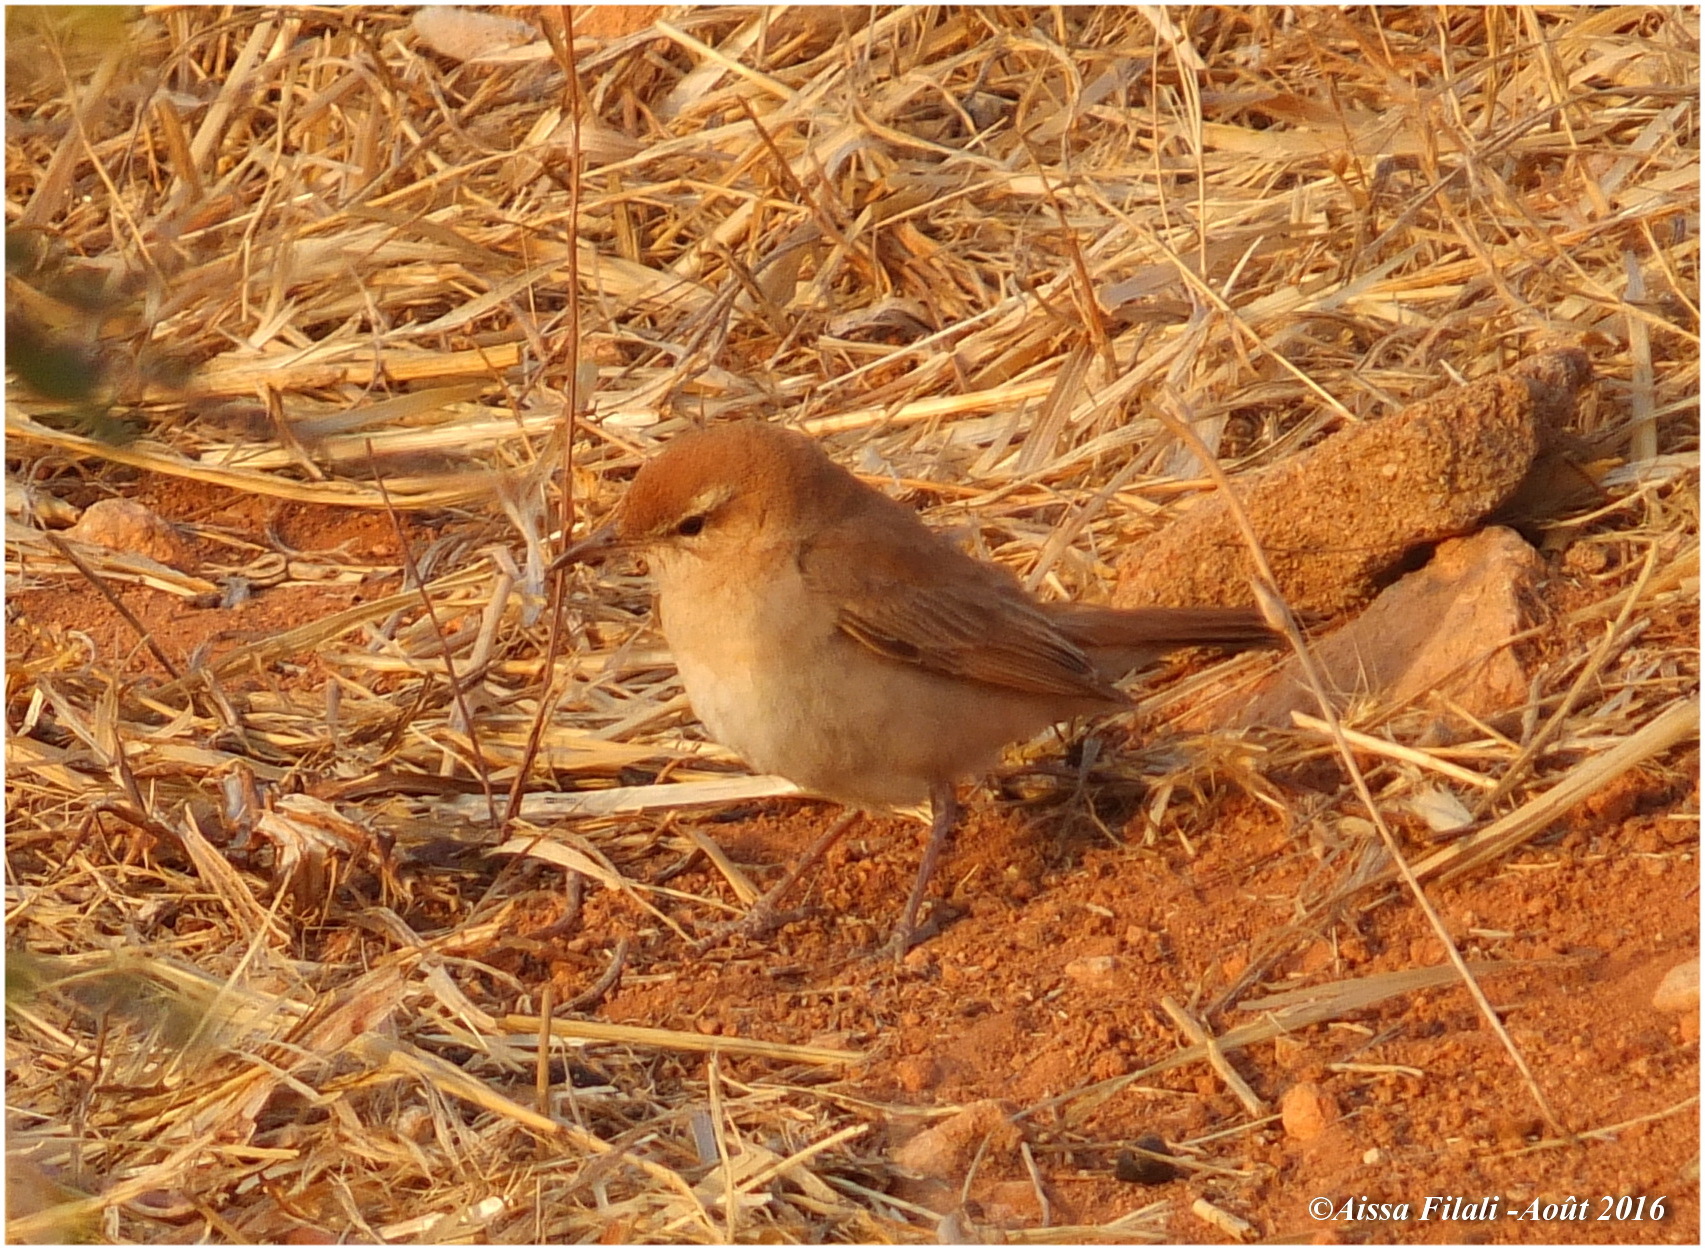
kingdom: Animalia
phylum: Chordata
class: Aves
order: Passeriformes
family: Muscicapidae
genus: Erythropygia
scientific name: Erythropygia galactotes
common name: Rufous-tailed scrub robin
